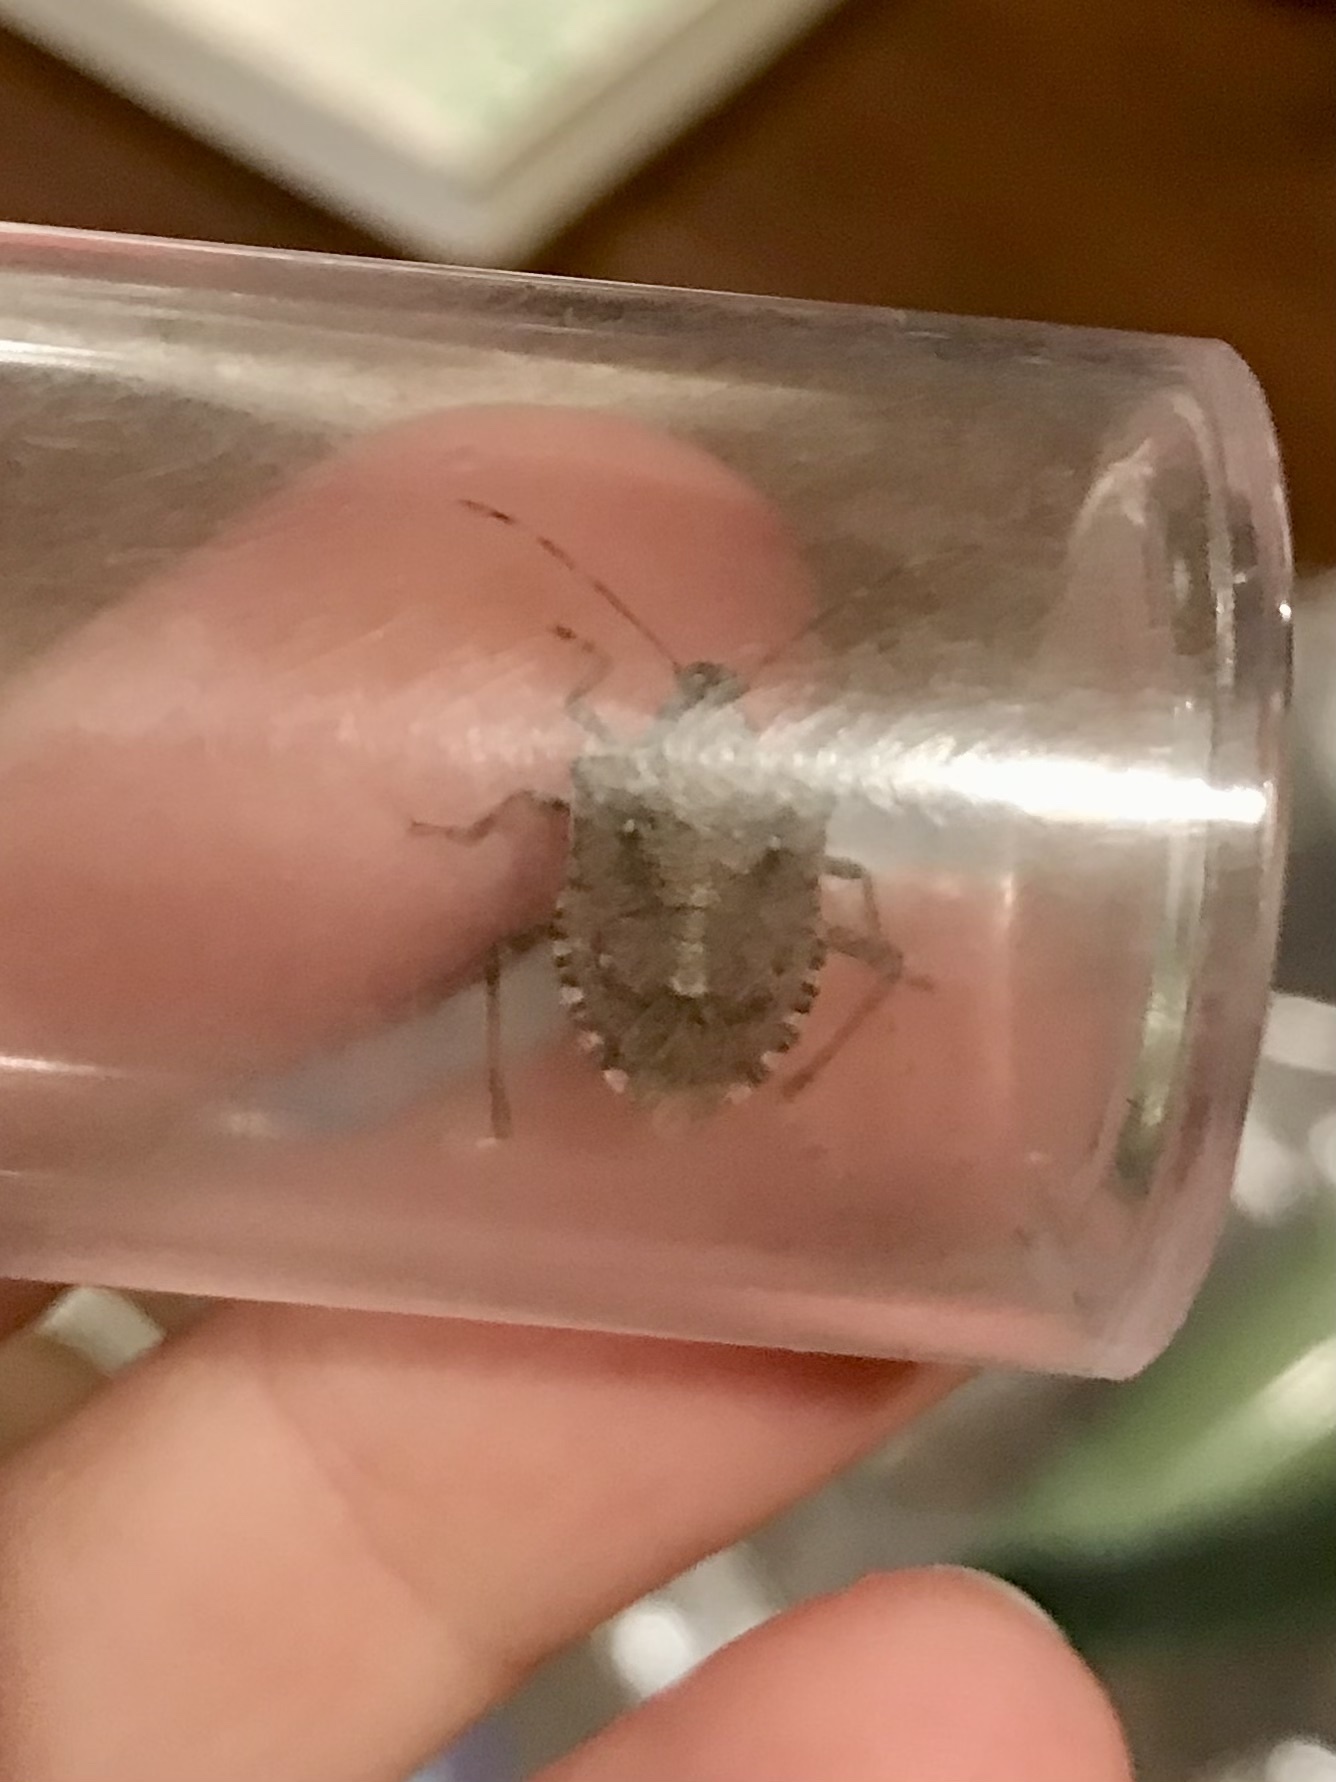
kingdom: Animalia
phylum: Arthropoda
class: Insecta
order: Hemiptera
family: Pentatomidae
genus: Halyomorpha
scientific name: Halyomorpha halys
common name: Brown marmorated stink bug
